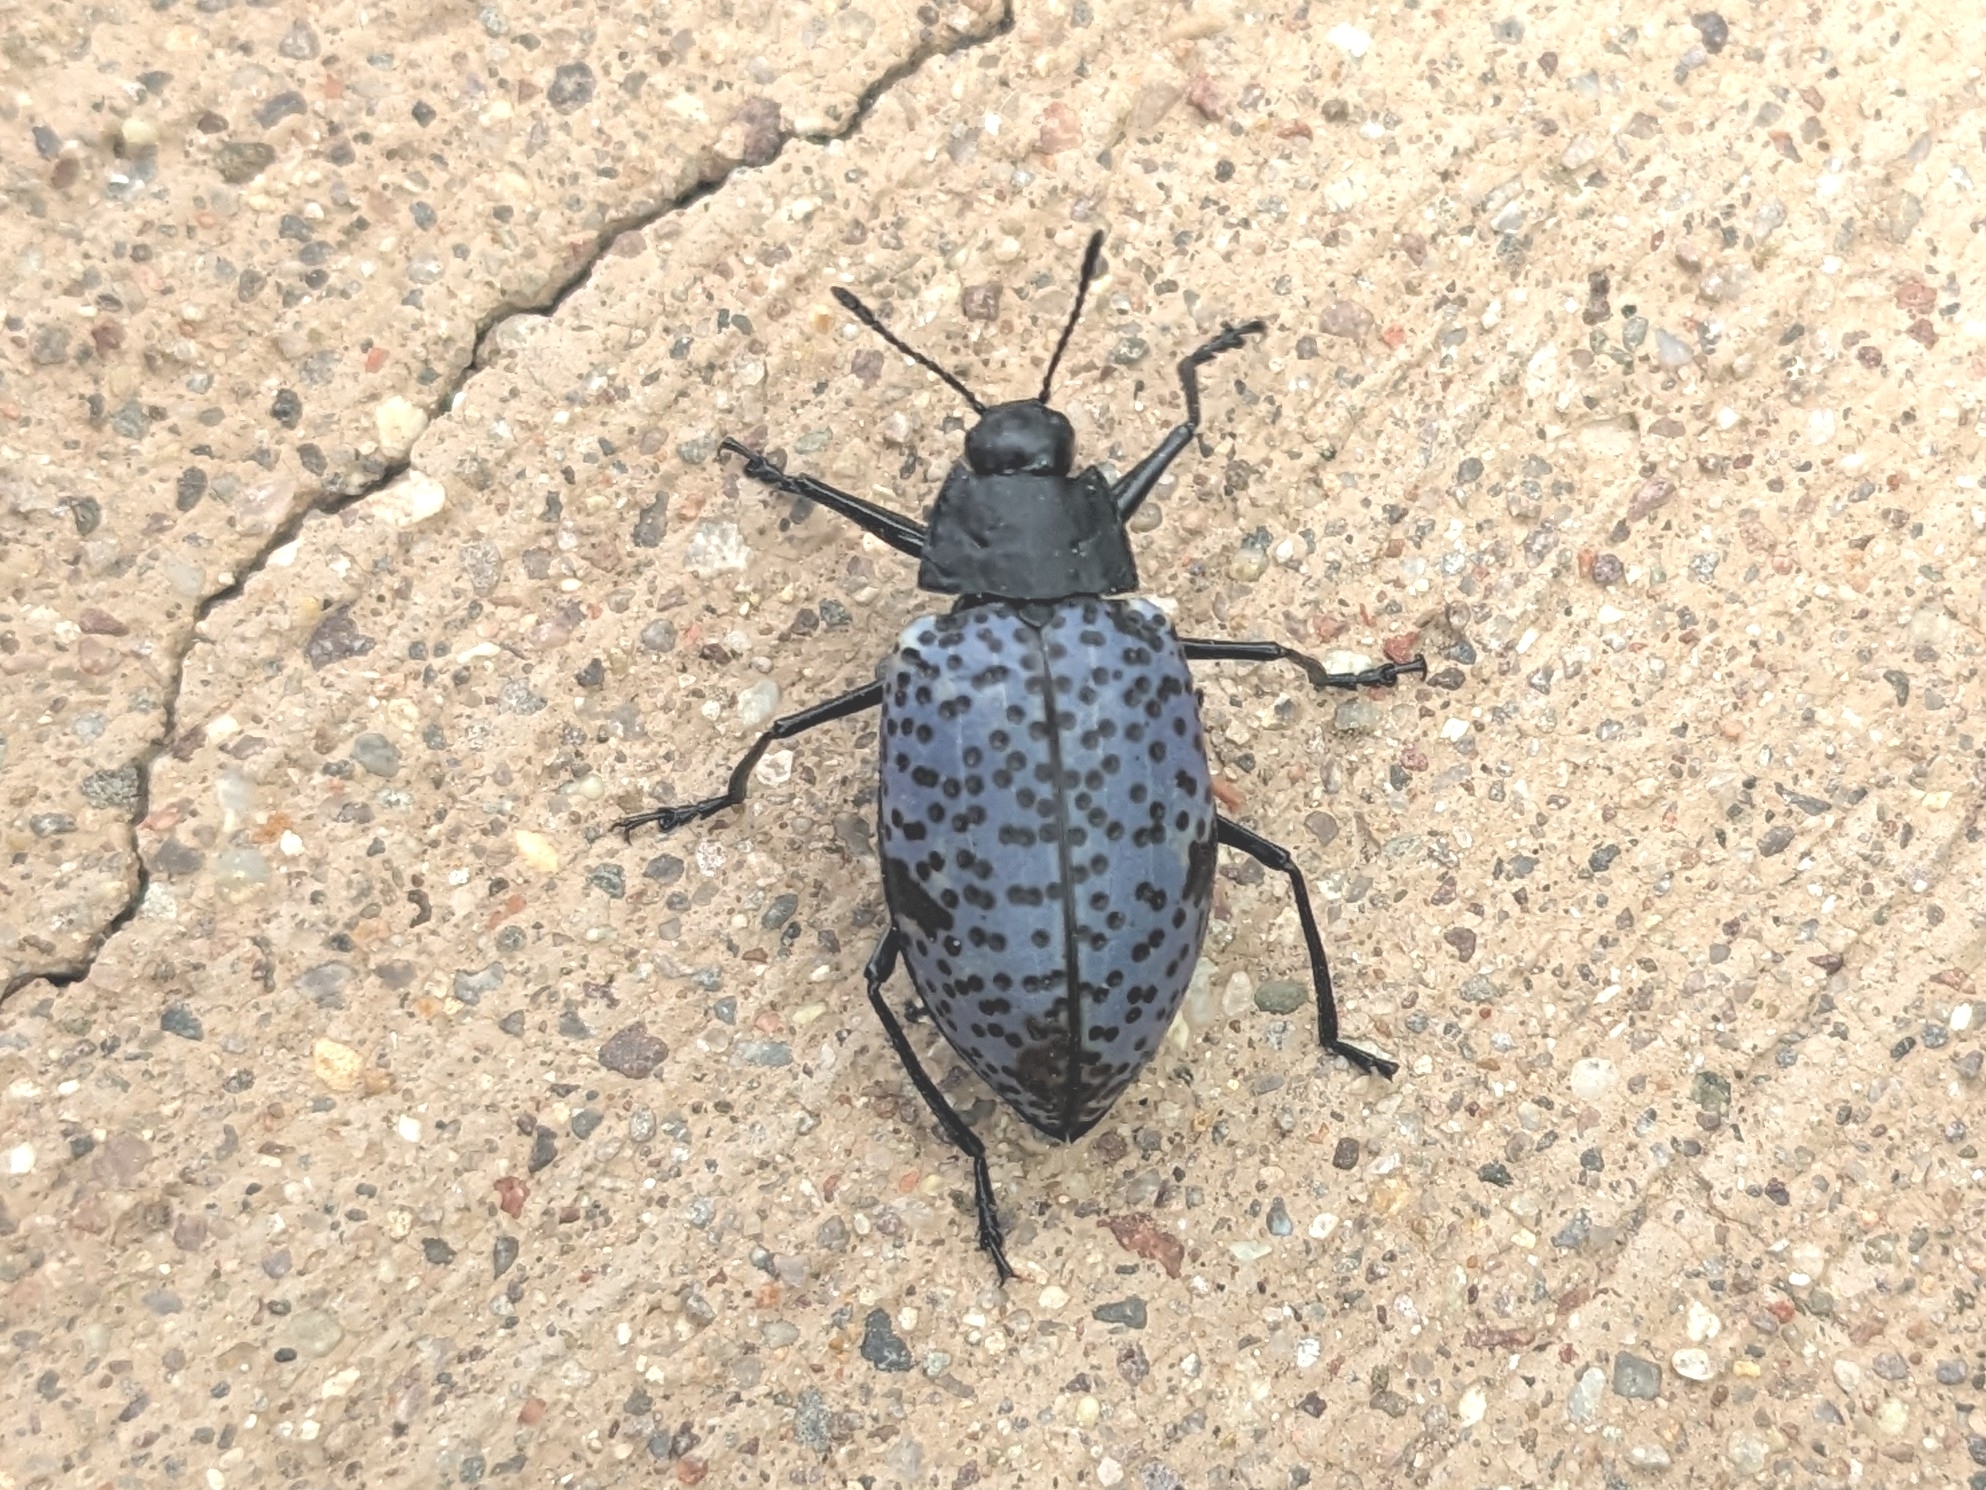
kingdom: Animalia
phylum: Arthropoda
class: Insecta
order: Coleoptera
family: Erotylidae
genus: Gibbifer
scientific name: Gibbifer californicus
